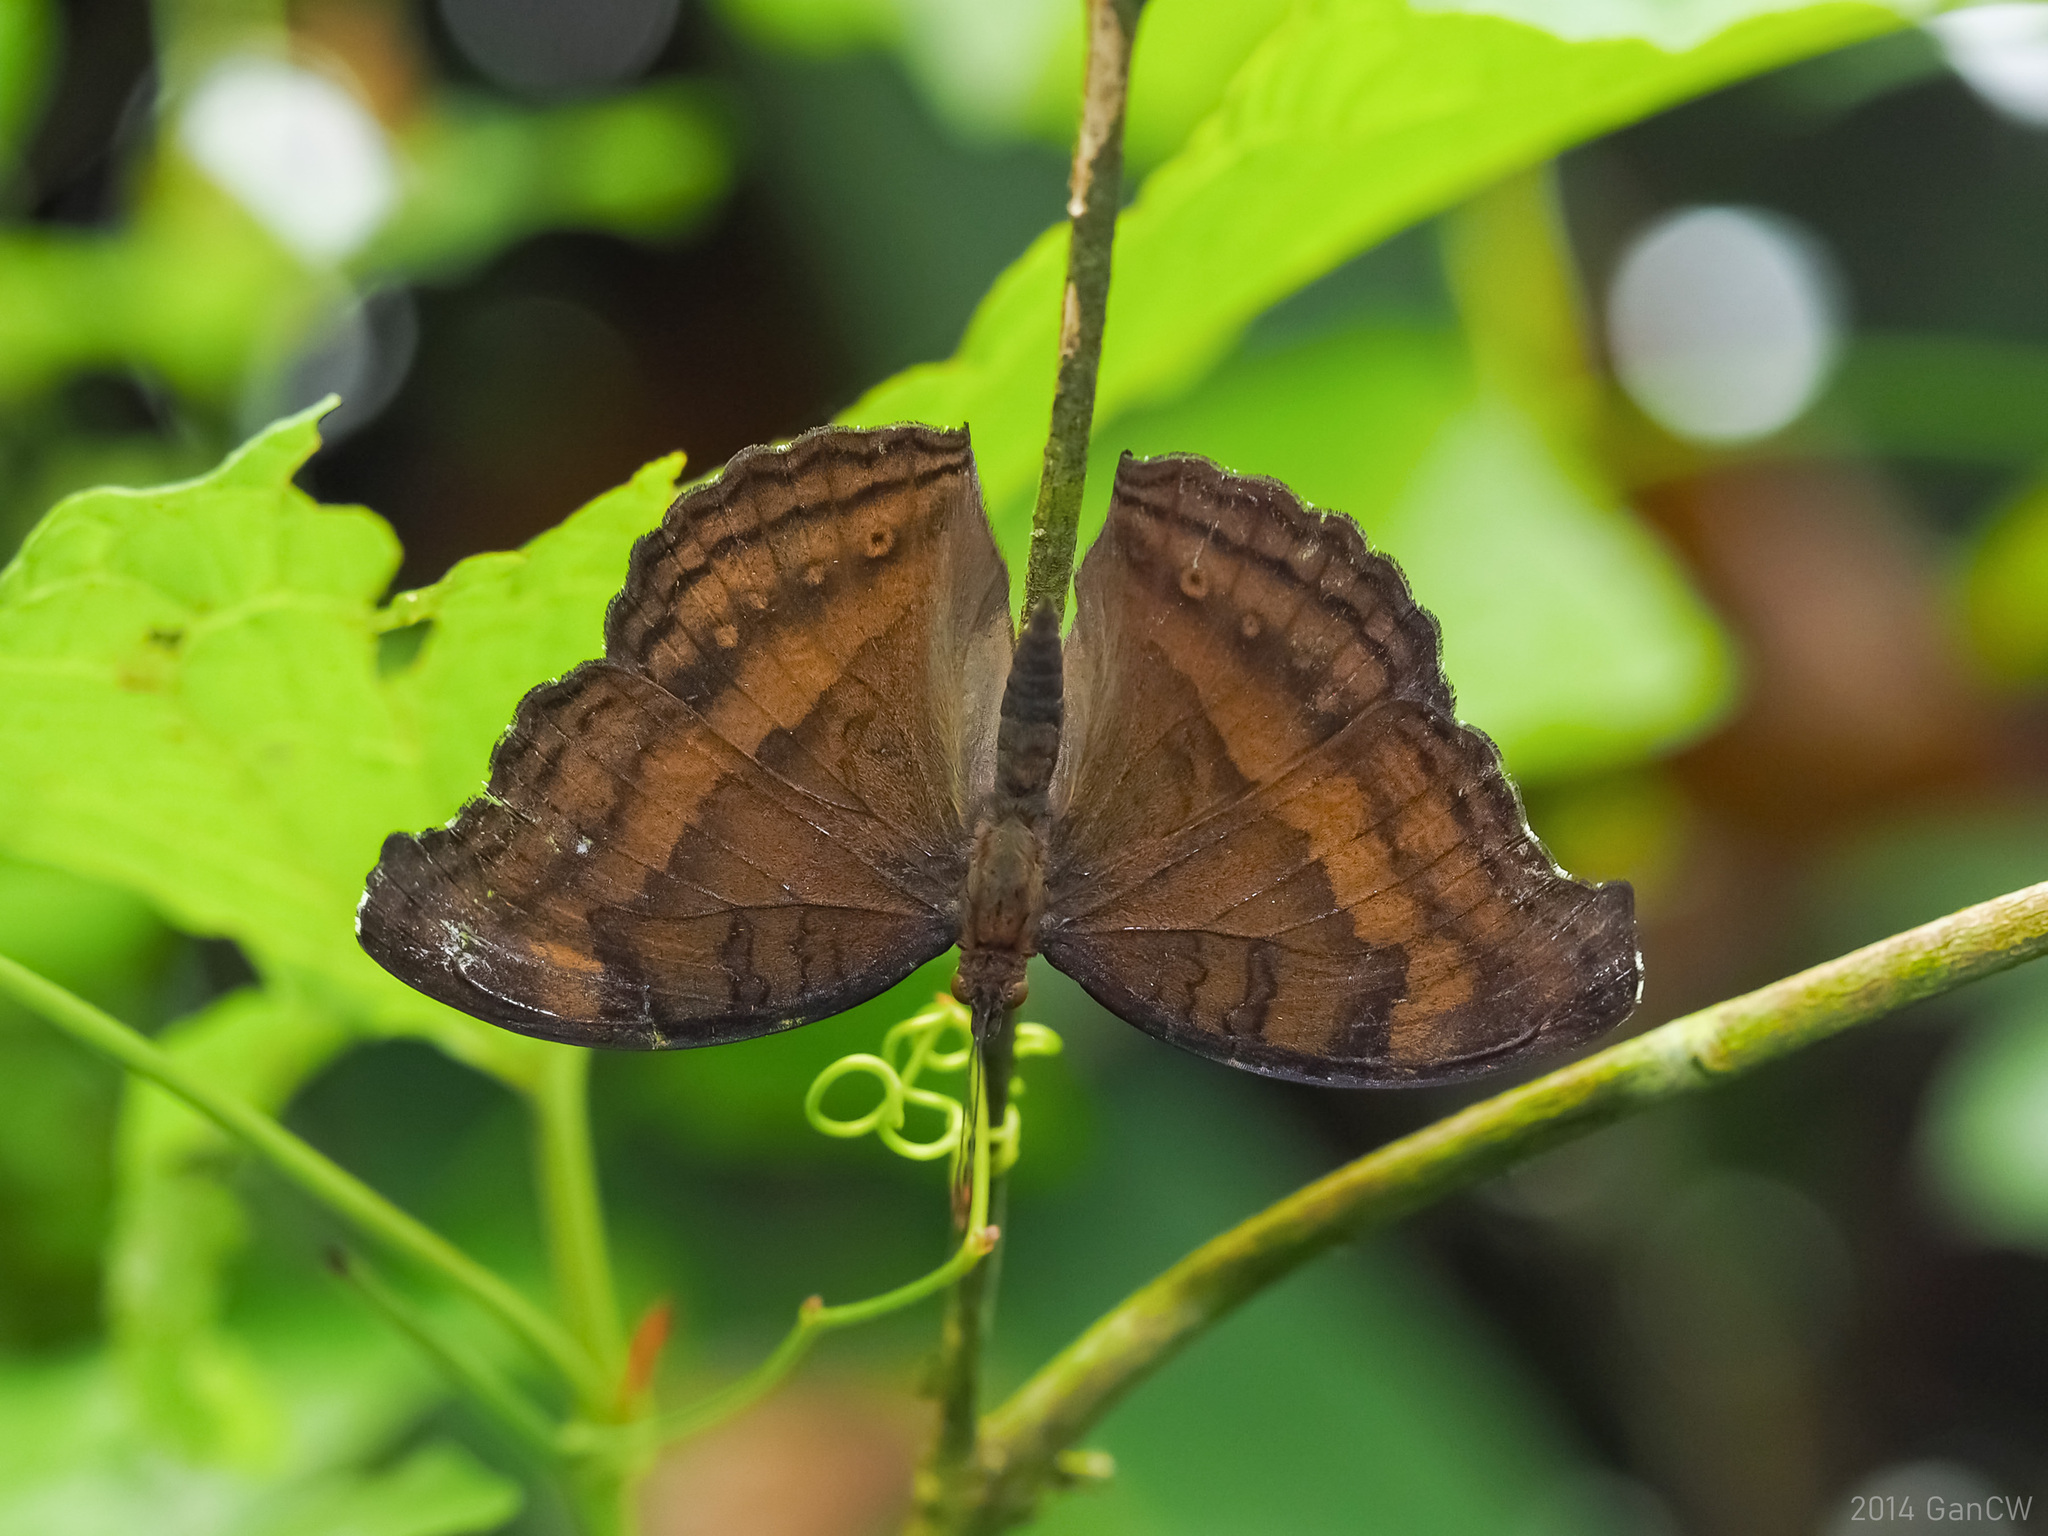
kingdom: Animalia
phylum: Arthropoda
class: Insecta
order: Lepidoptera
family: Nymphalidae
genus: Junonia
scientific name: Junonia iphita
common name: Chocolate pansy
